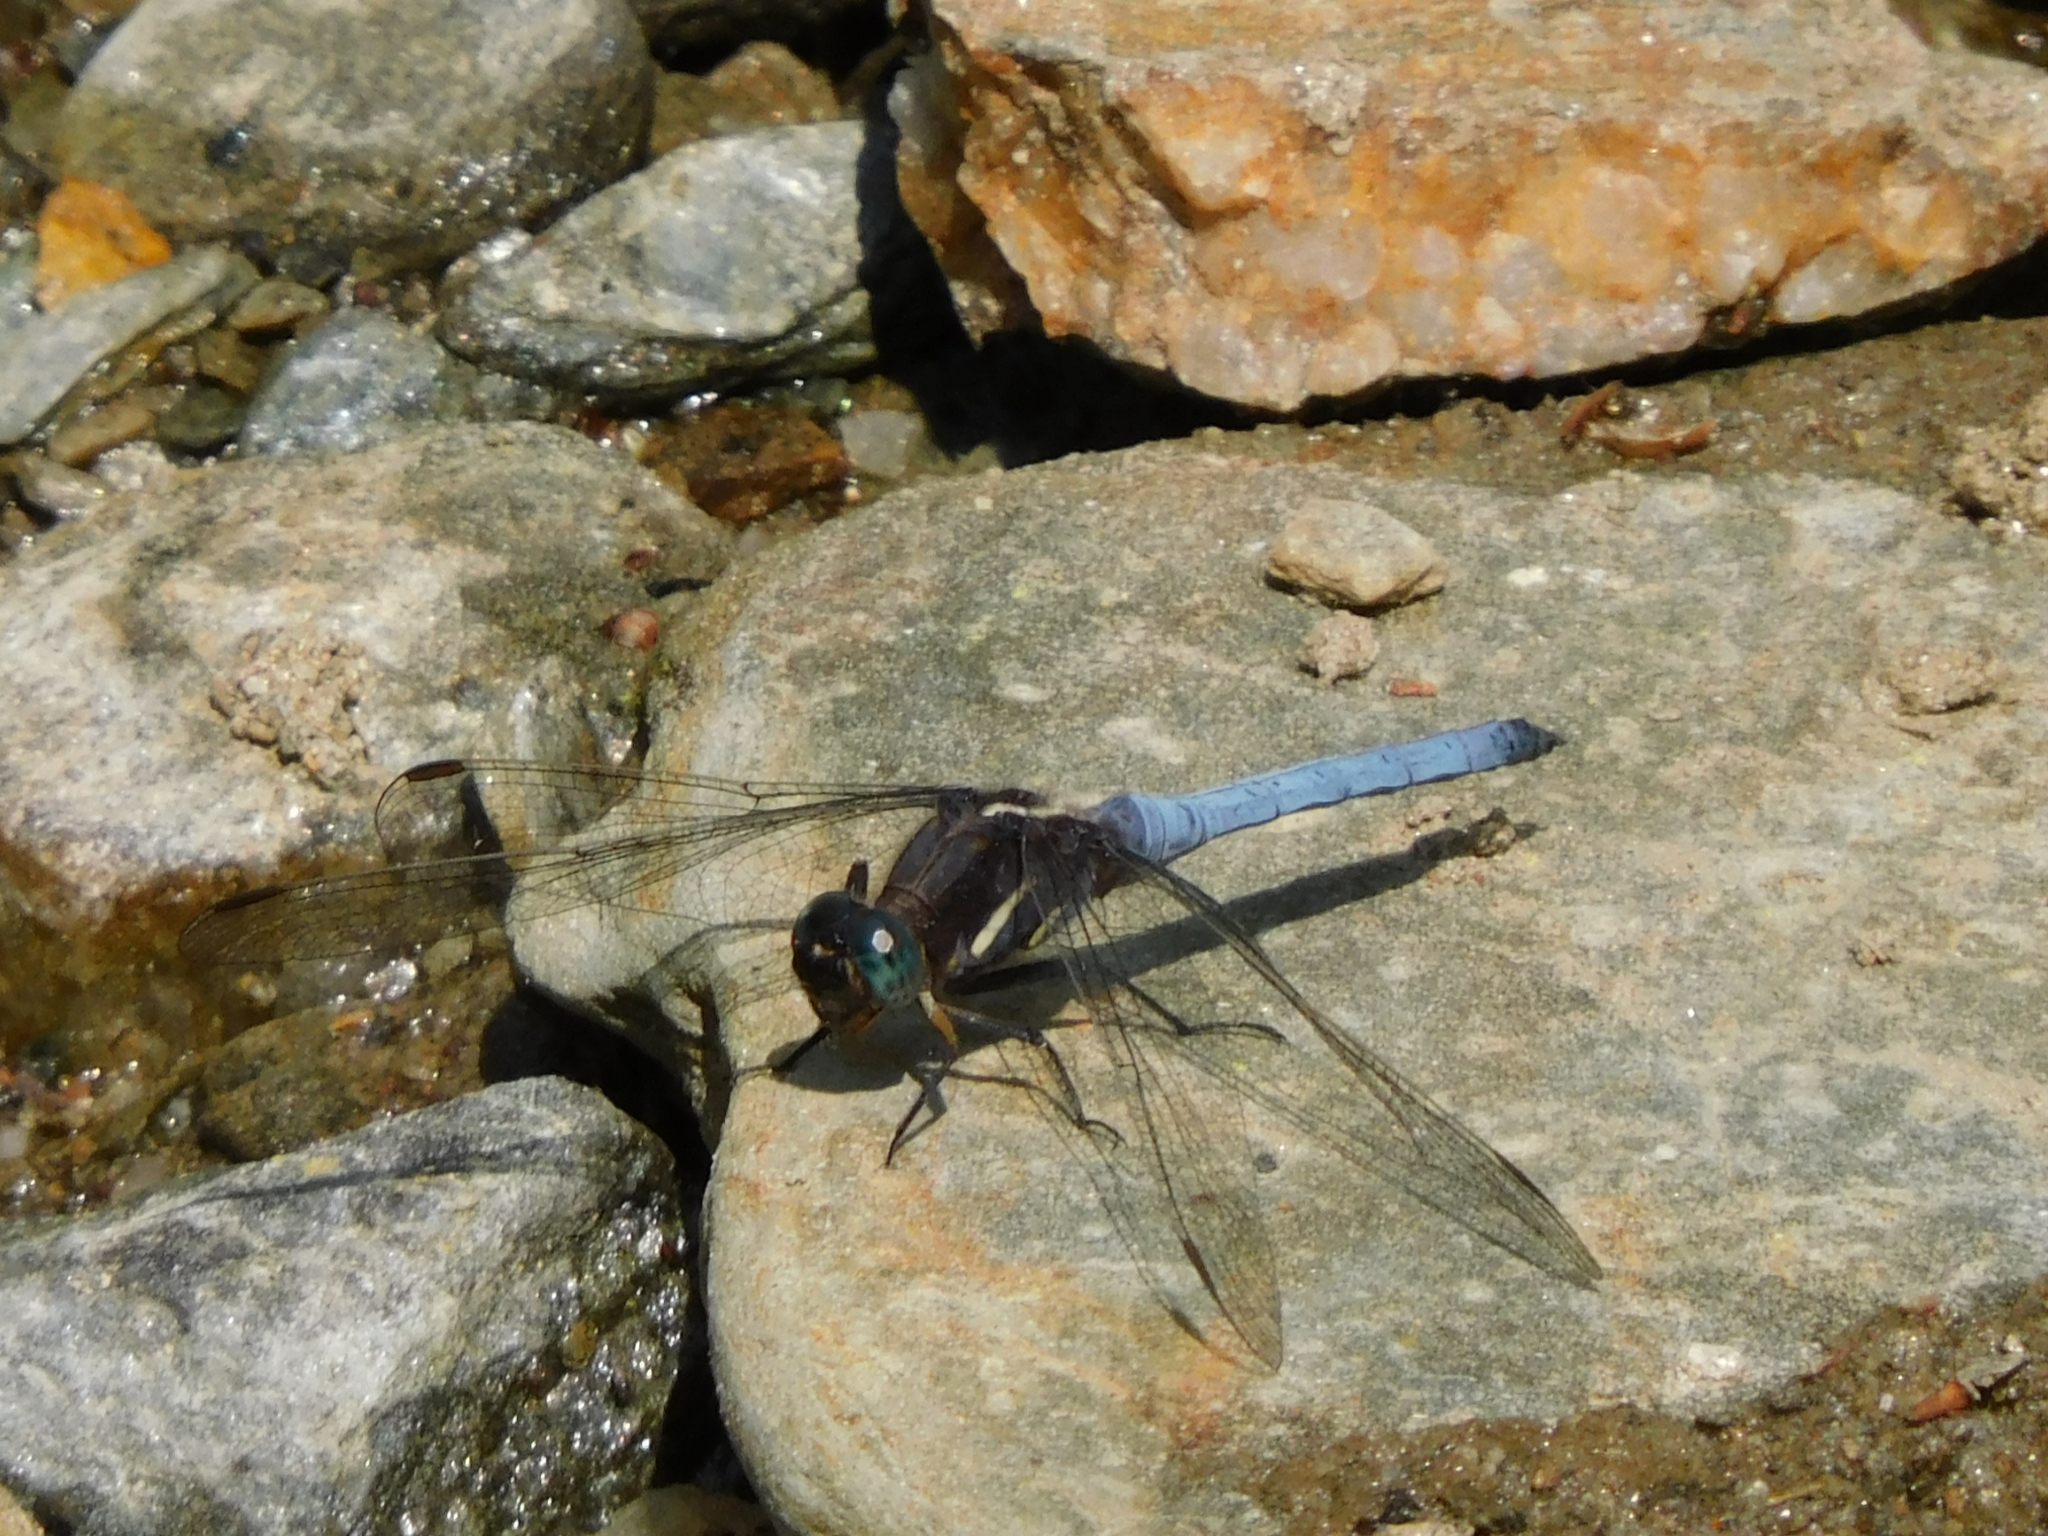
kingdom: Animalia
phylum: Arthropoda
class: Insecta
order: Odonata
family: Libellulidae
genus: Orthetrum
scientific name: Orthetrum glaucum
